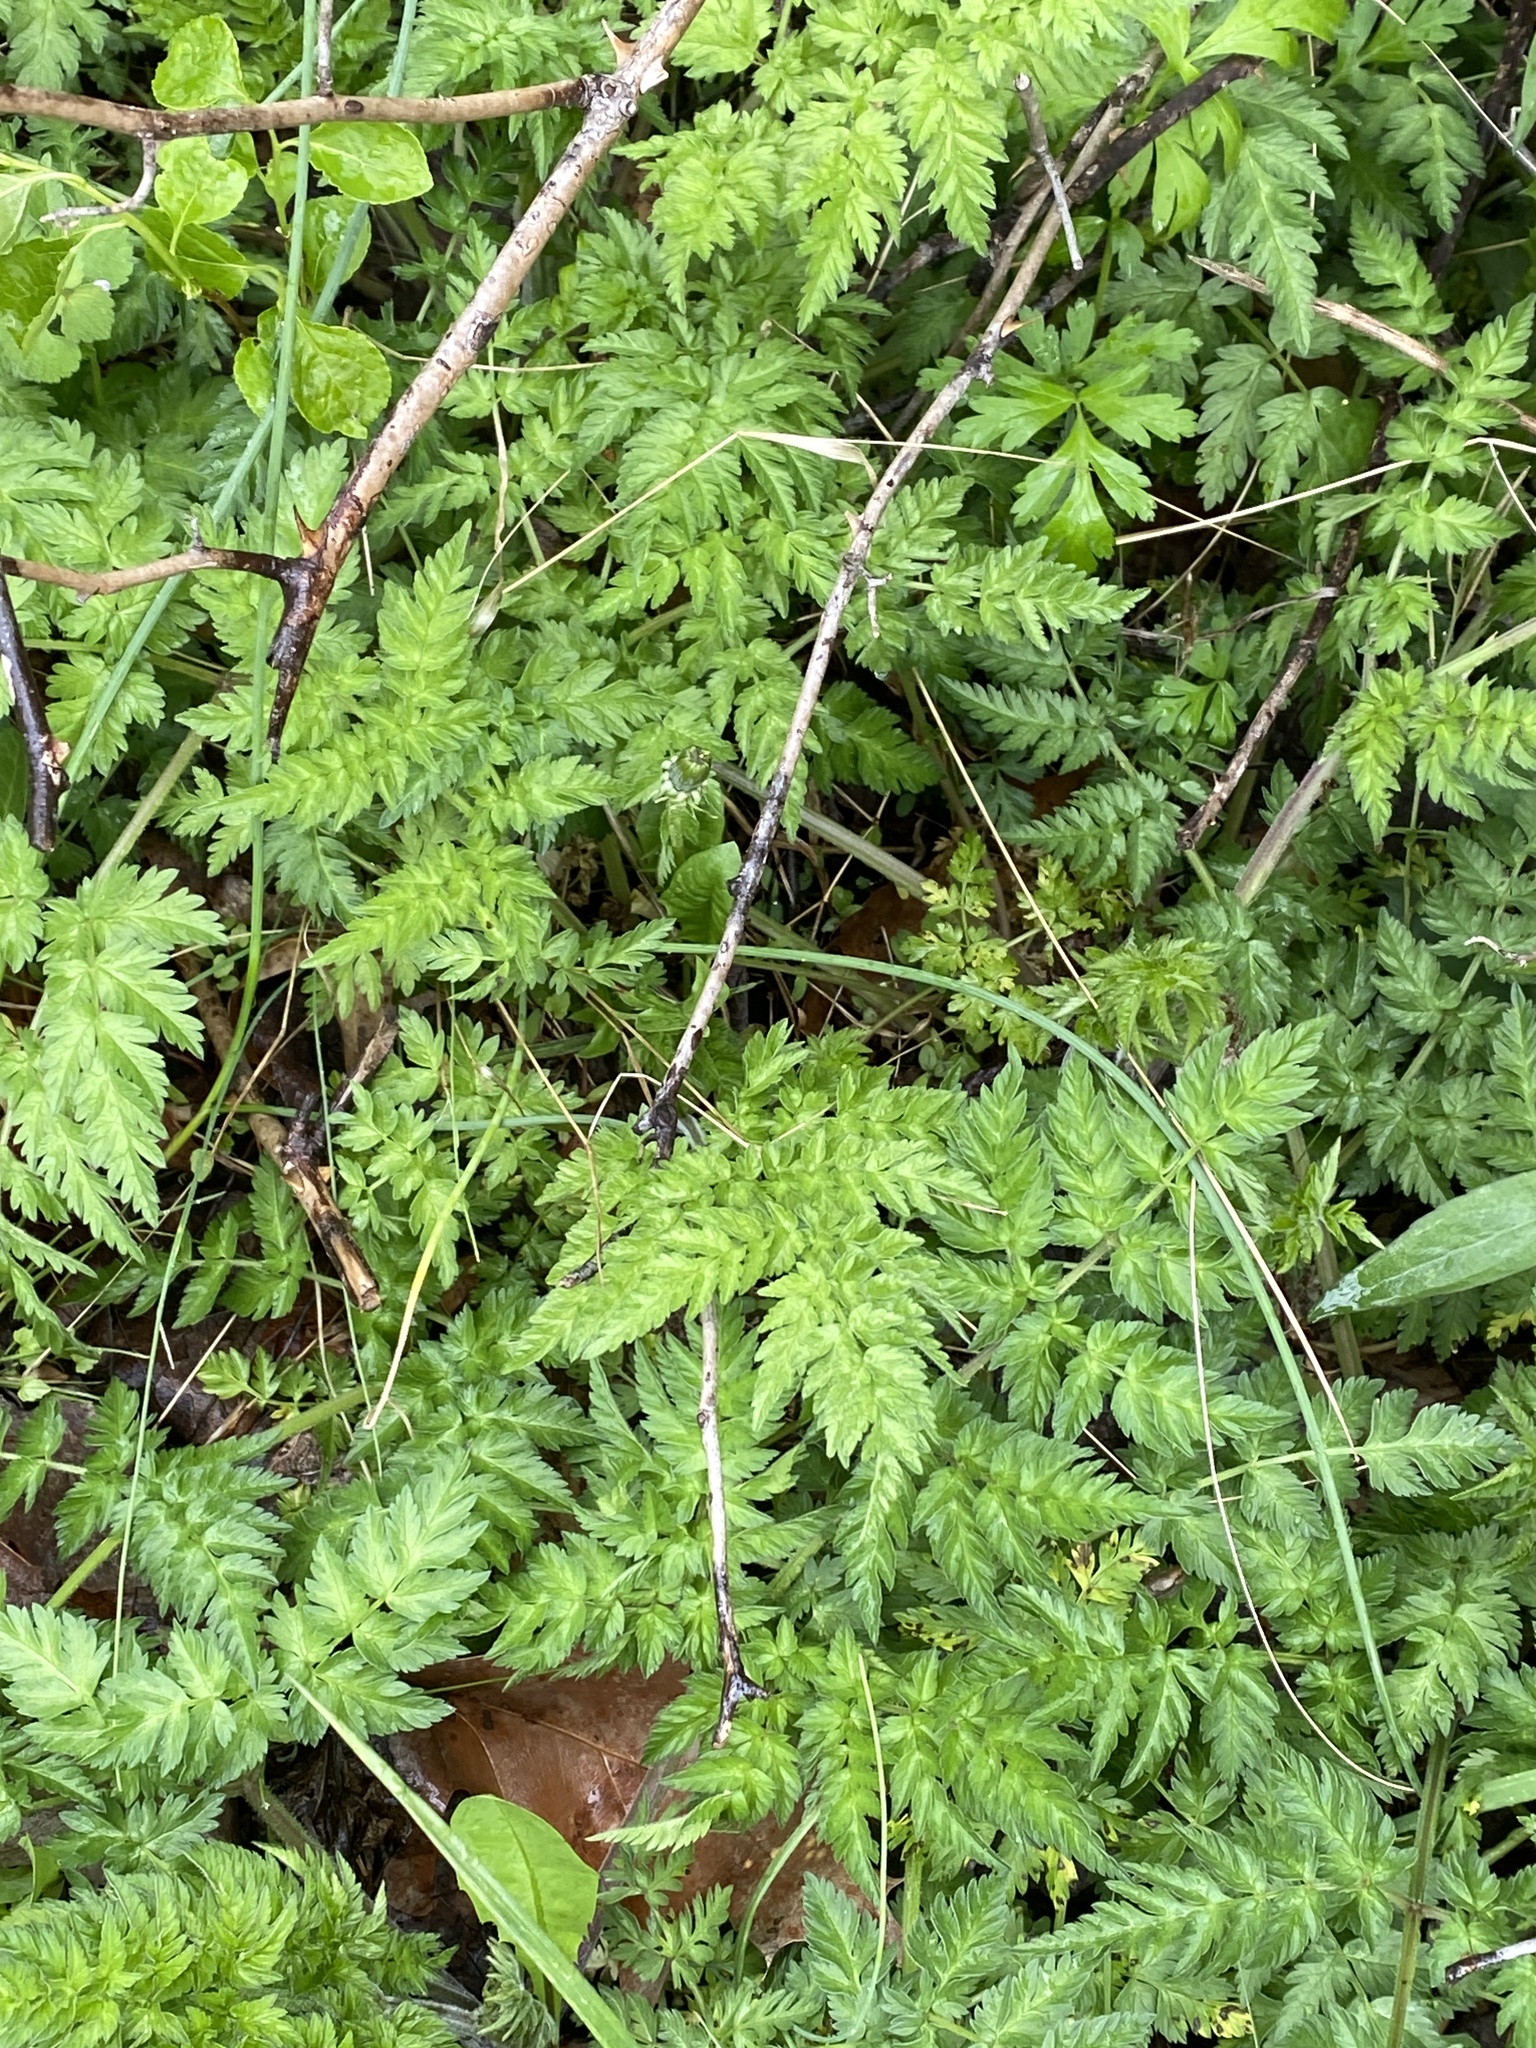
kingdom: Plantae
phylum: Tracheophyta
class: Magnoliopsida
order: Apiales
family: Apiaceae
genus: Anthriscus
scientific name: Anthriscus sylvestris
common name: Cow parsley
